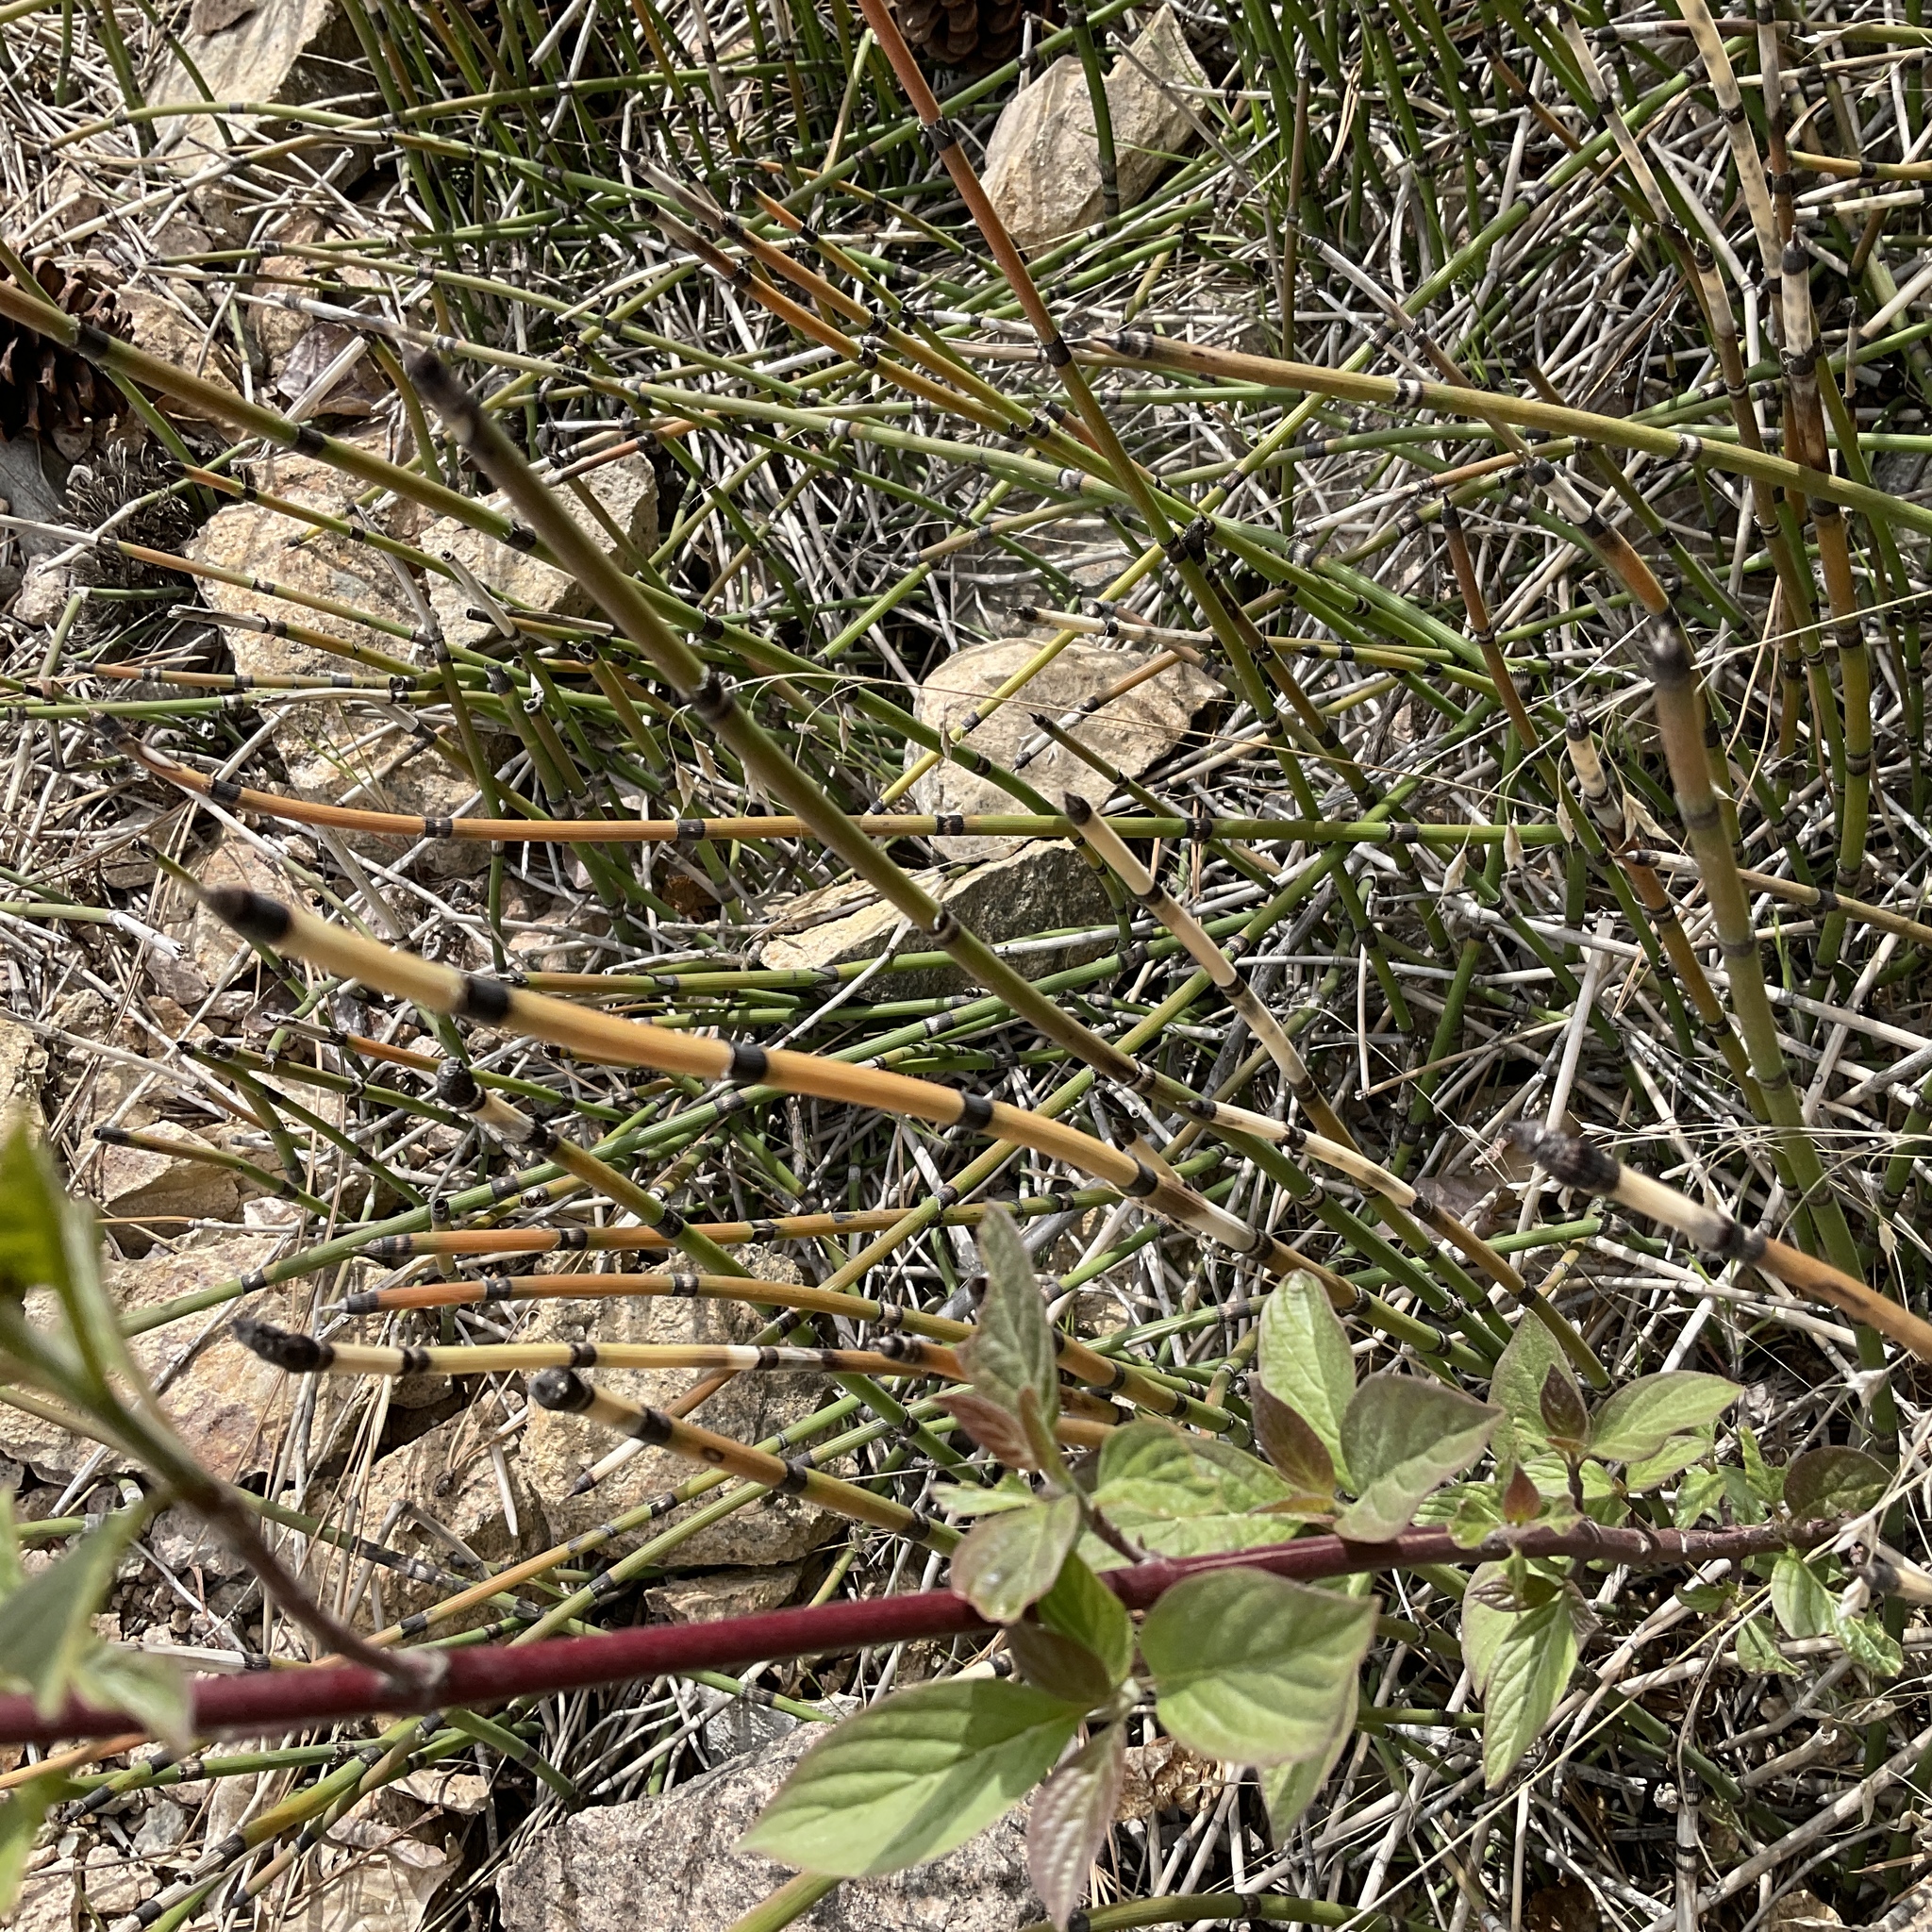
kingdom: Plantae
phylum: Tracheophyta
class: Polypodiopsida
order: Equisetales
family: Equisetaceae
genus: Equisetum
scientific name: Equisetum hyemale
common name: Rough horsetail
